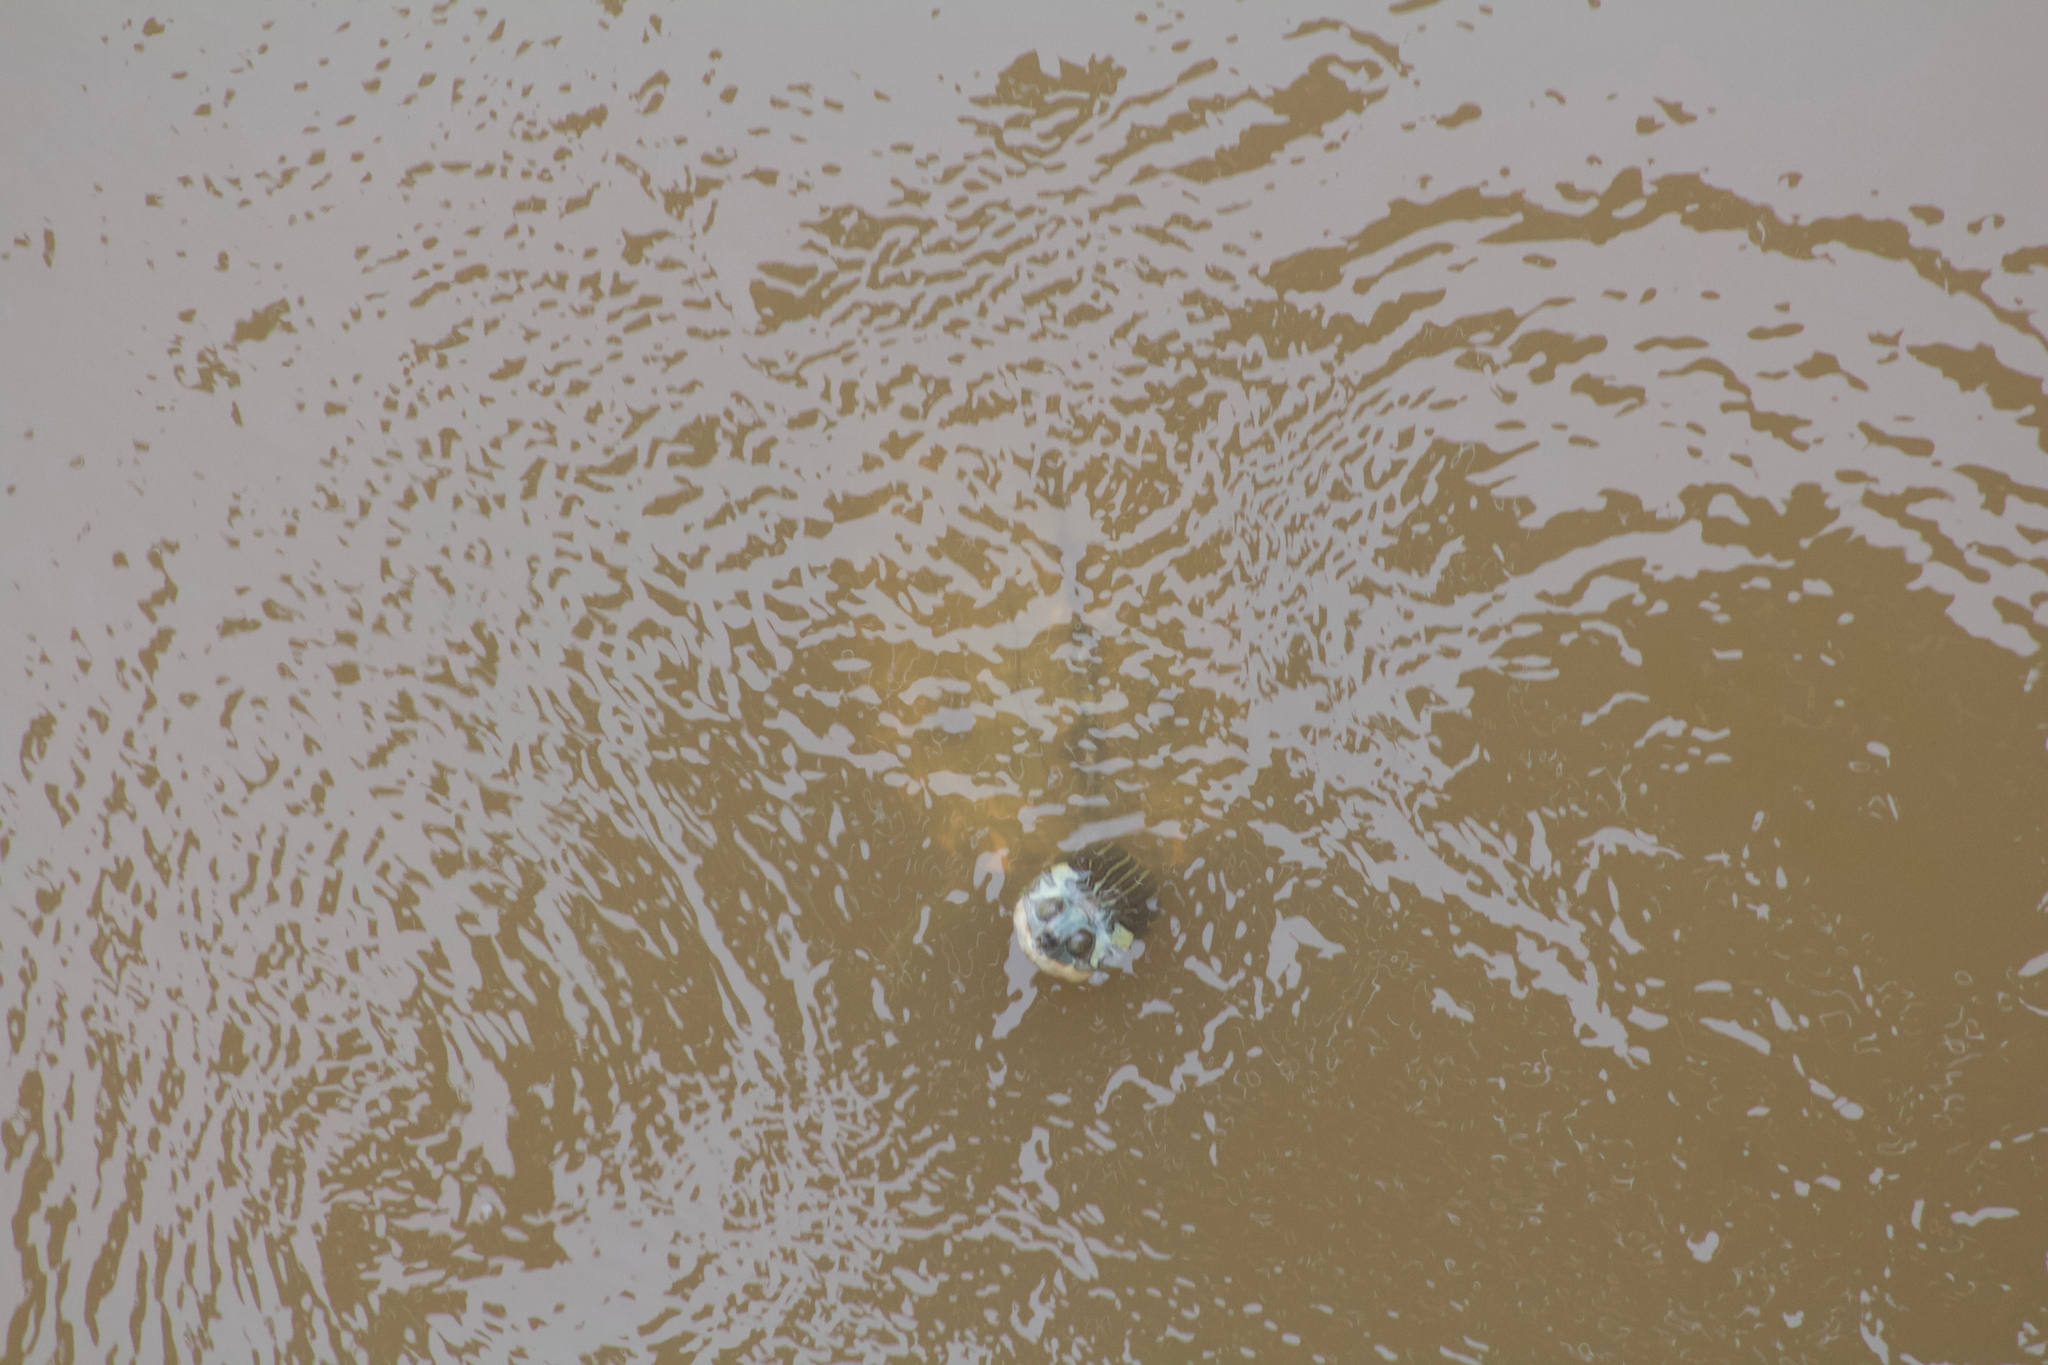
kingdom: Animalia
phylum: Chordata
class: Testudines
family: Emydidae
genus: Graptemys
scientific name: Graptemys gibbonsi
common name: Pascagoula map turtle
